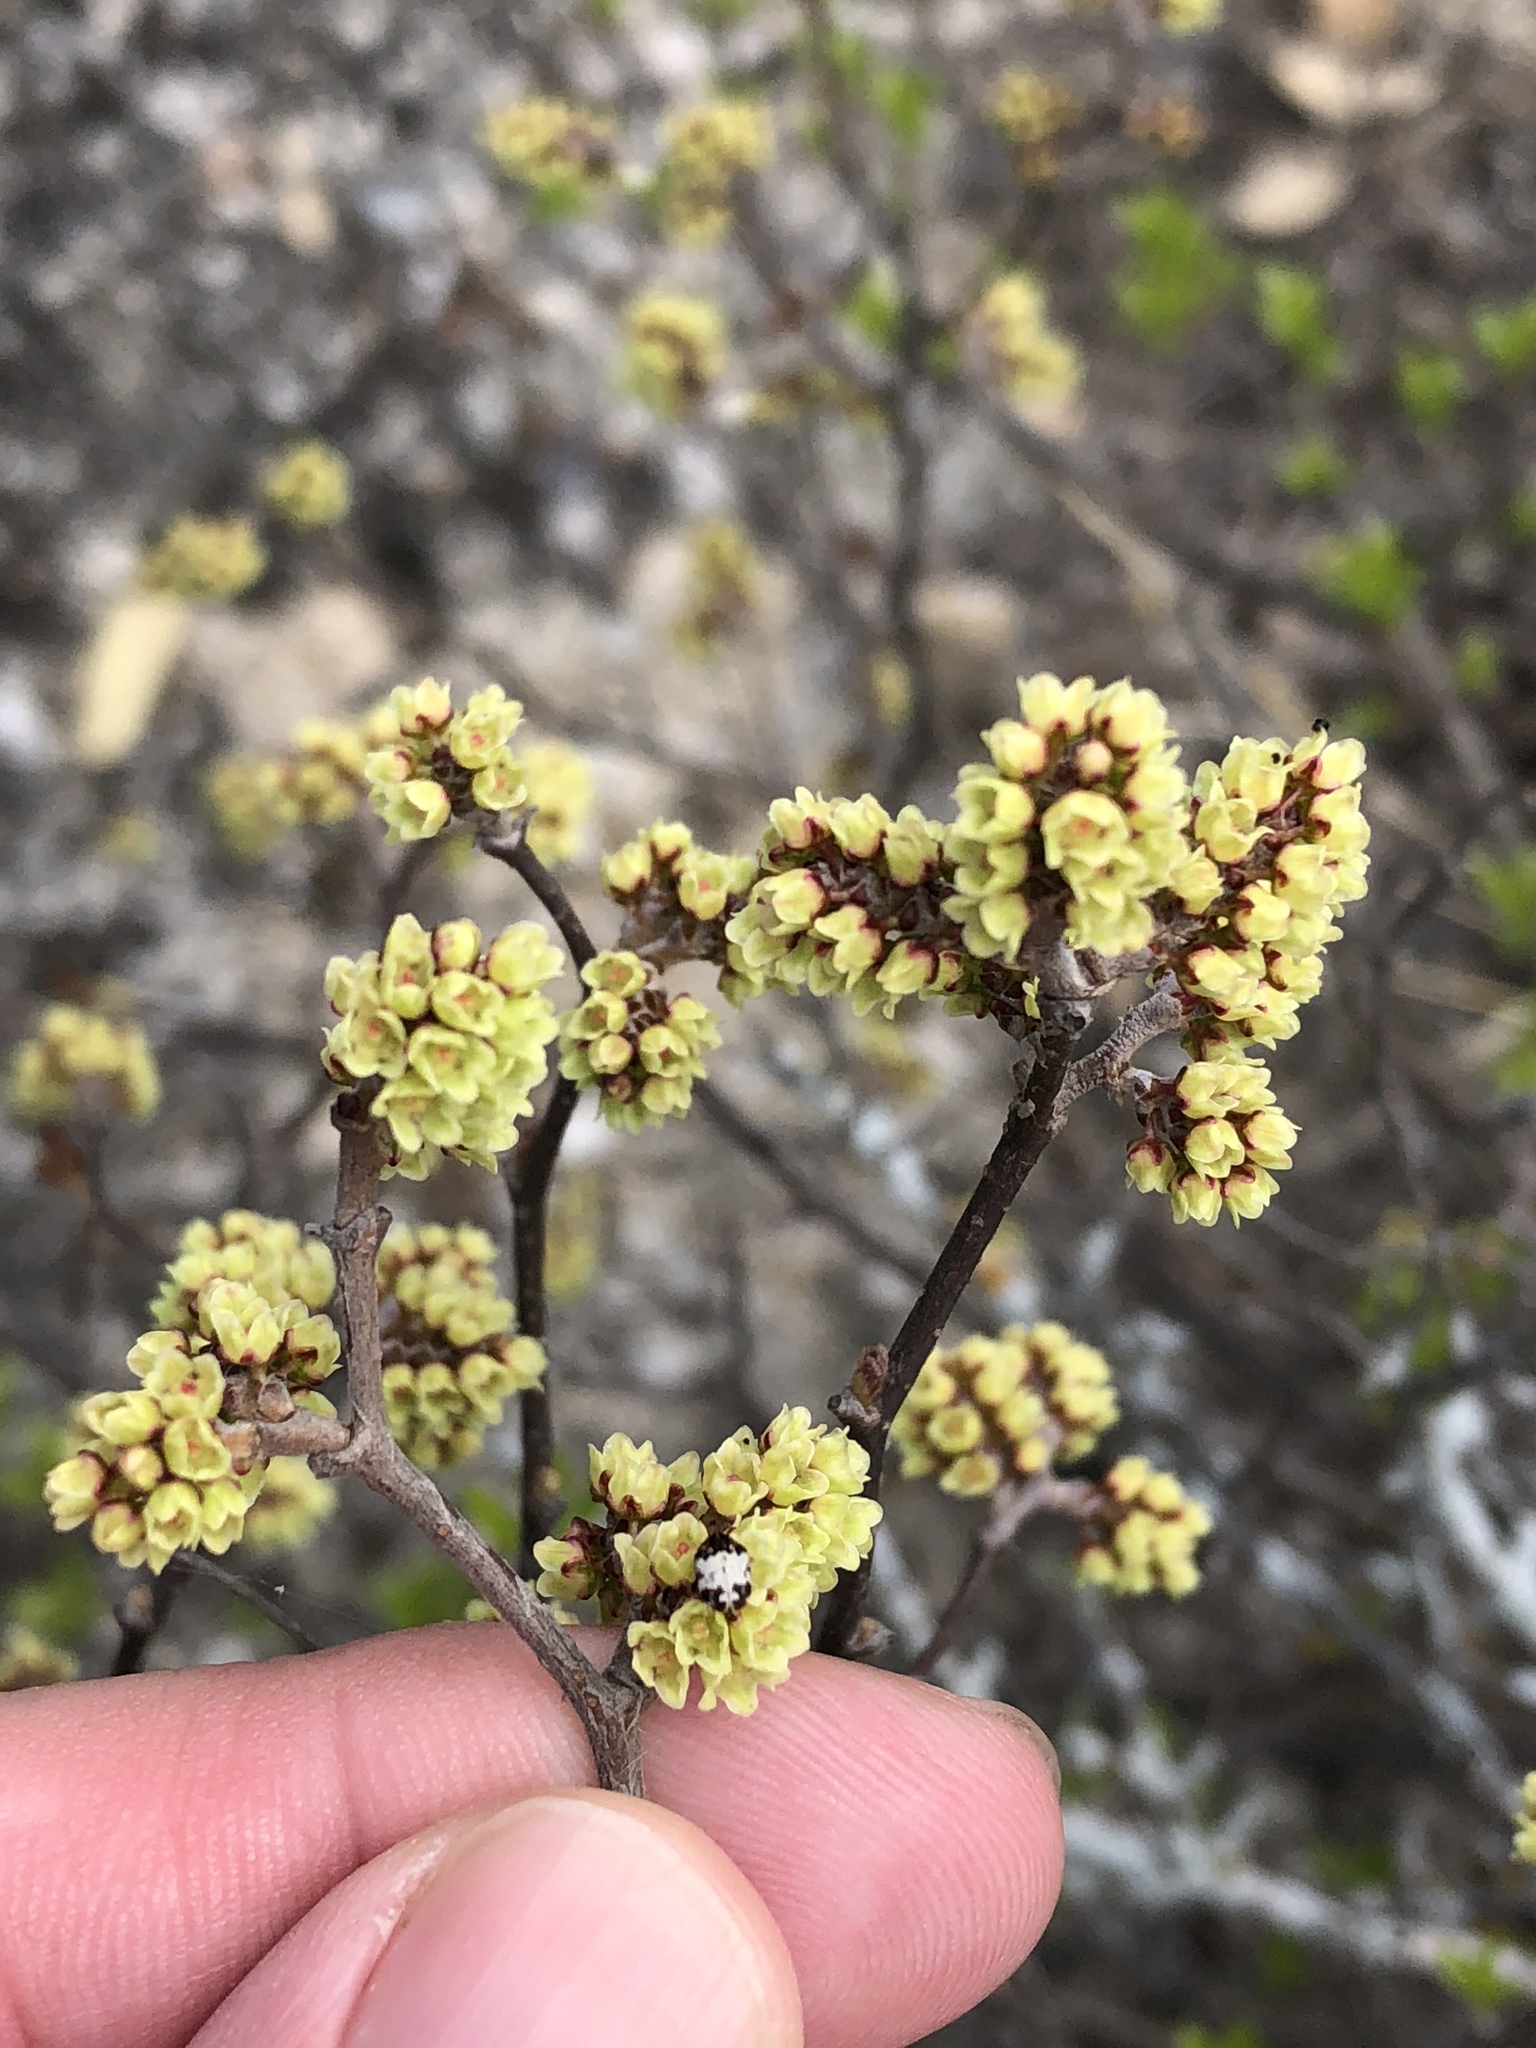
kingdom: Plantae
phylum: Tracheophyta
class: Magnoliopsida
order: Sapindales
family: Anacardiaceae
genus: Rhus
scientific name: Rhus aromatica
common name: Aromatic sumac
